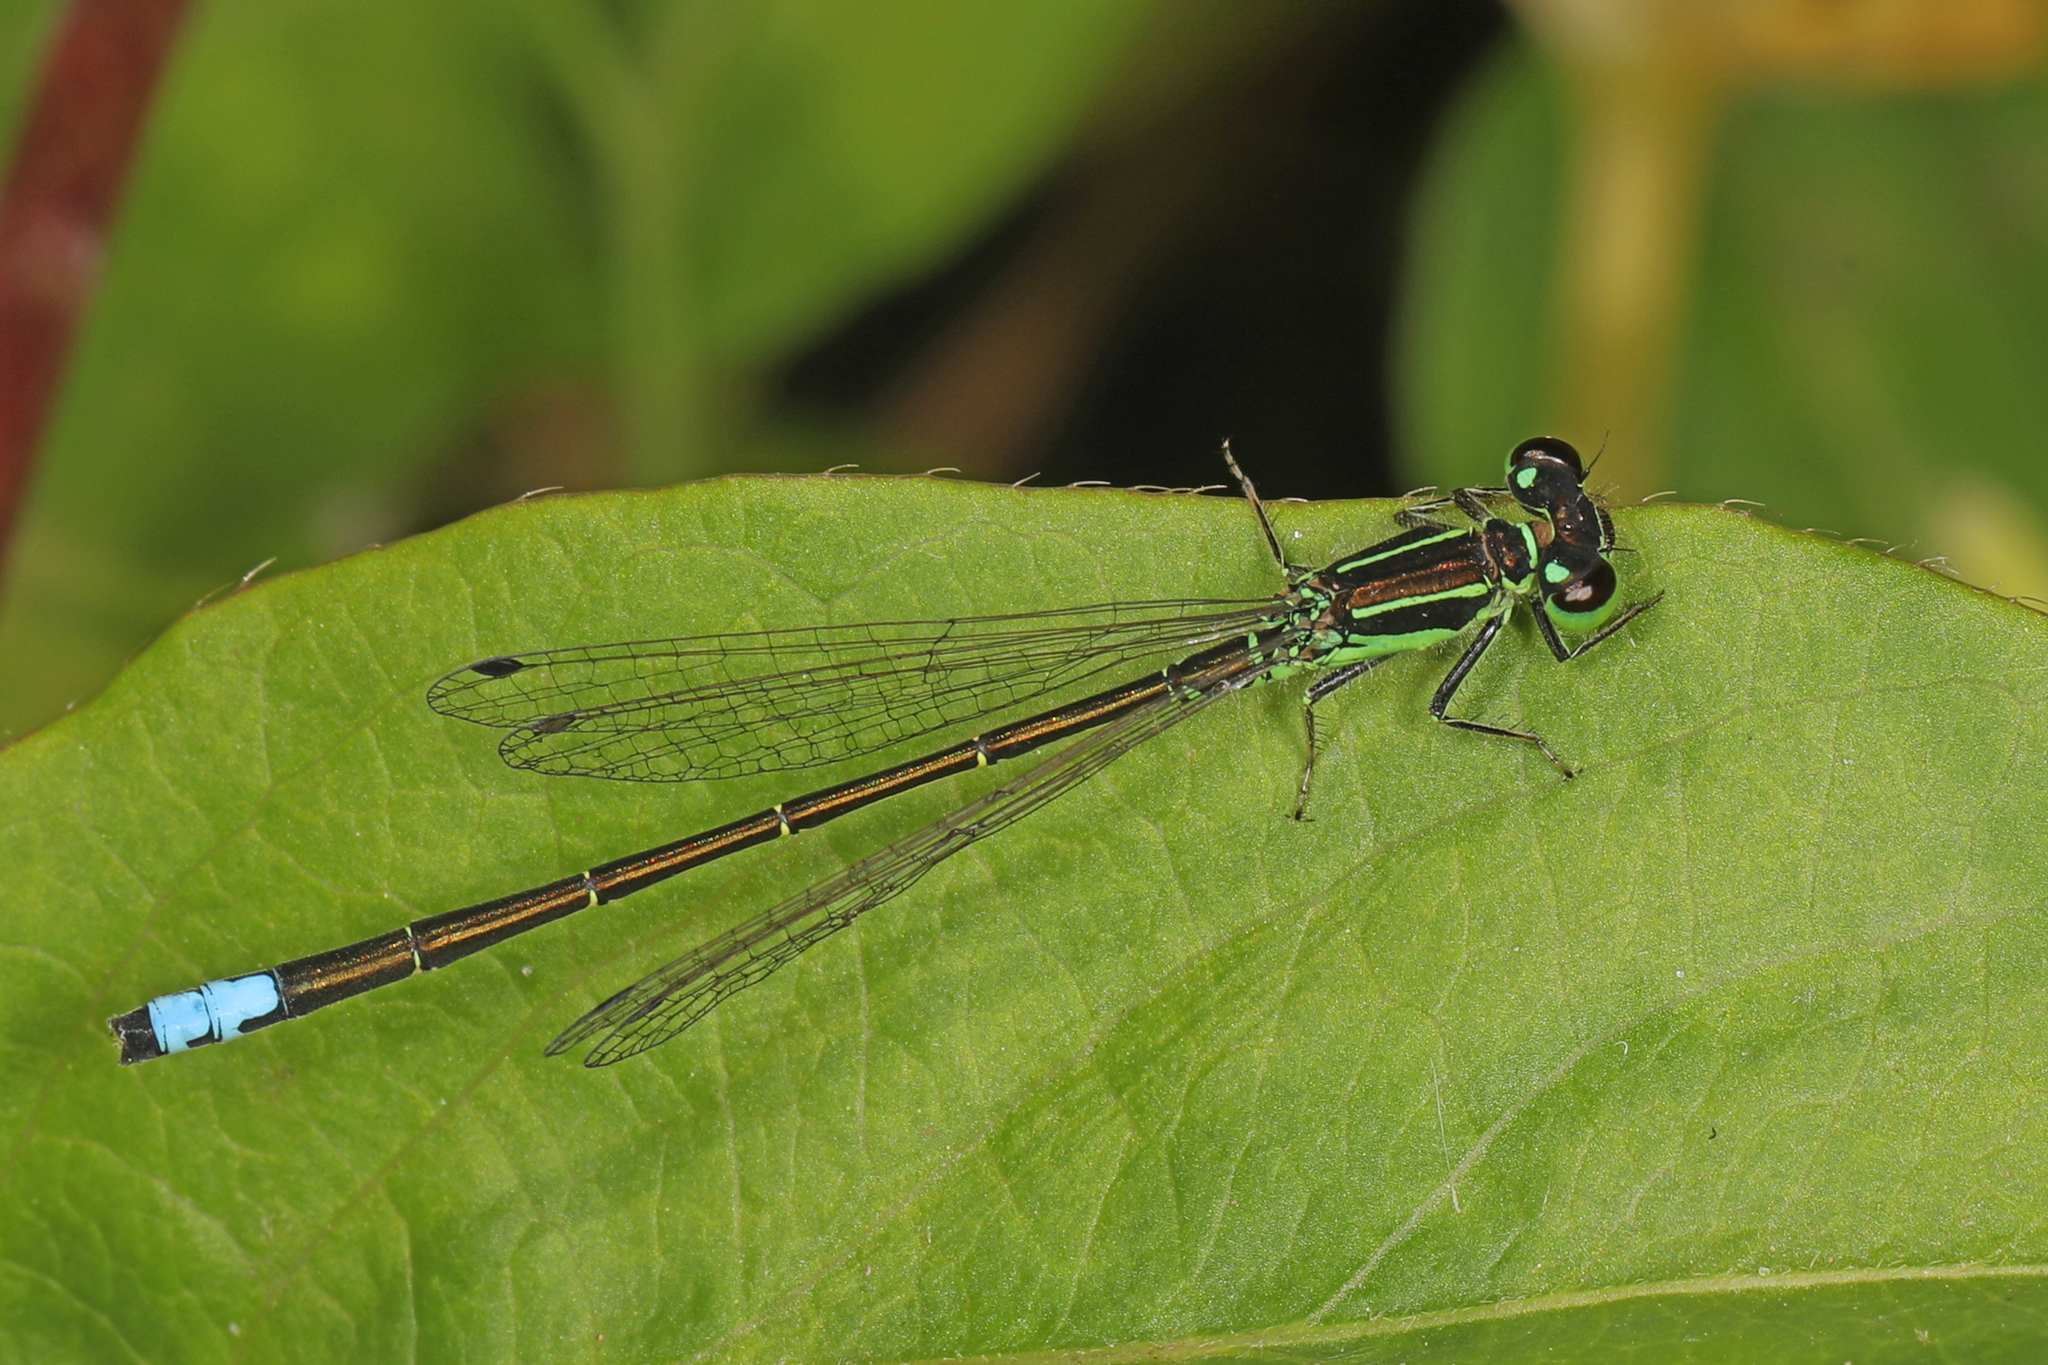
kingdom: Animalia
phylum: Arthropoda
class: Insecta
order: Odonata
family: Coenagrionidae
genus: Ischnura
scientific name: Ischnura verticalis
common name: Eastern forktail
